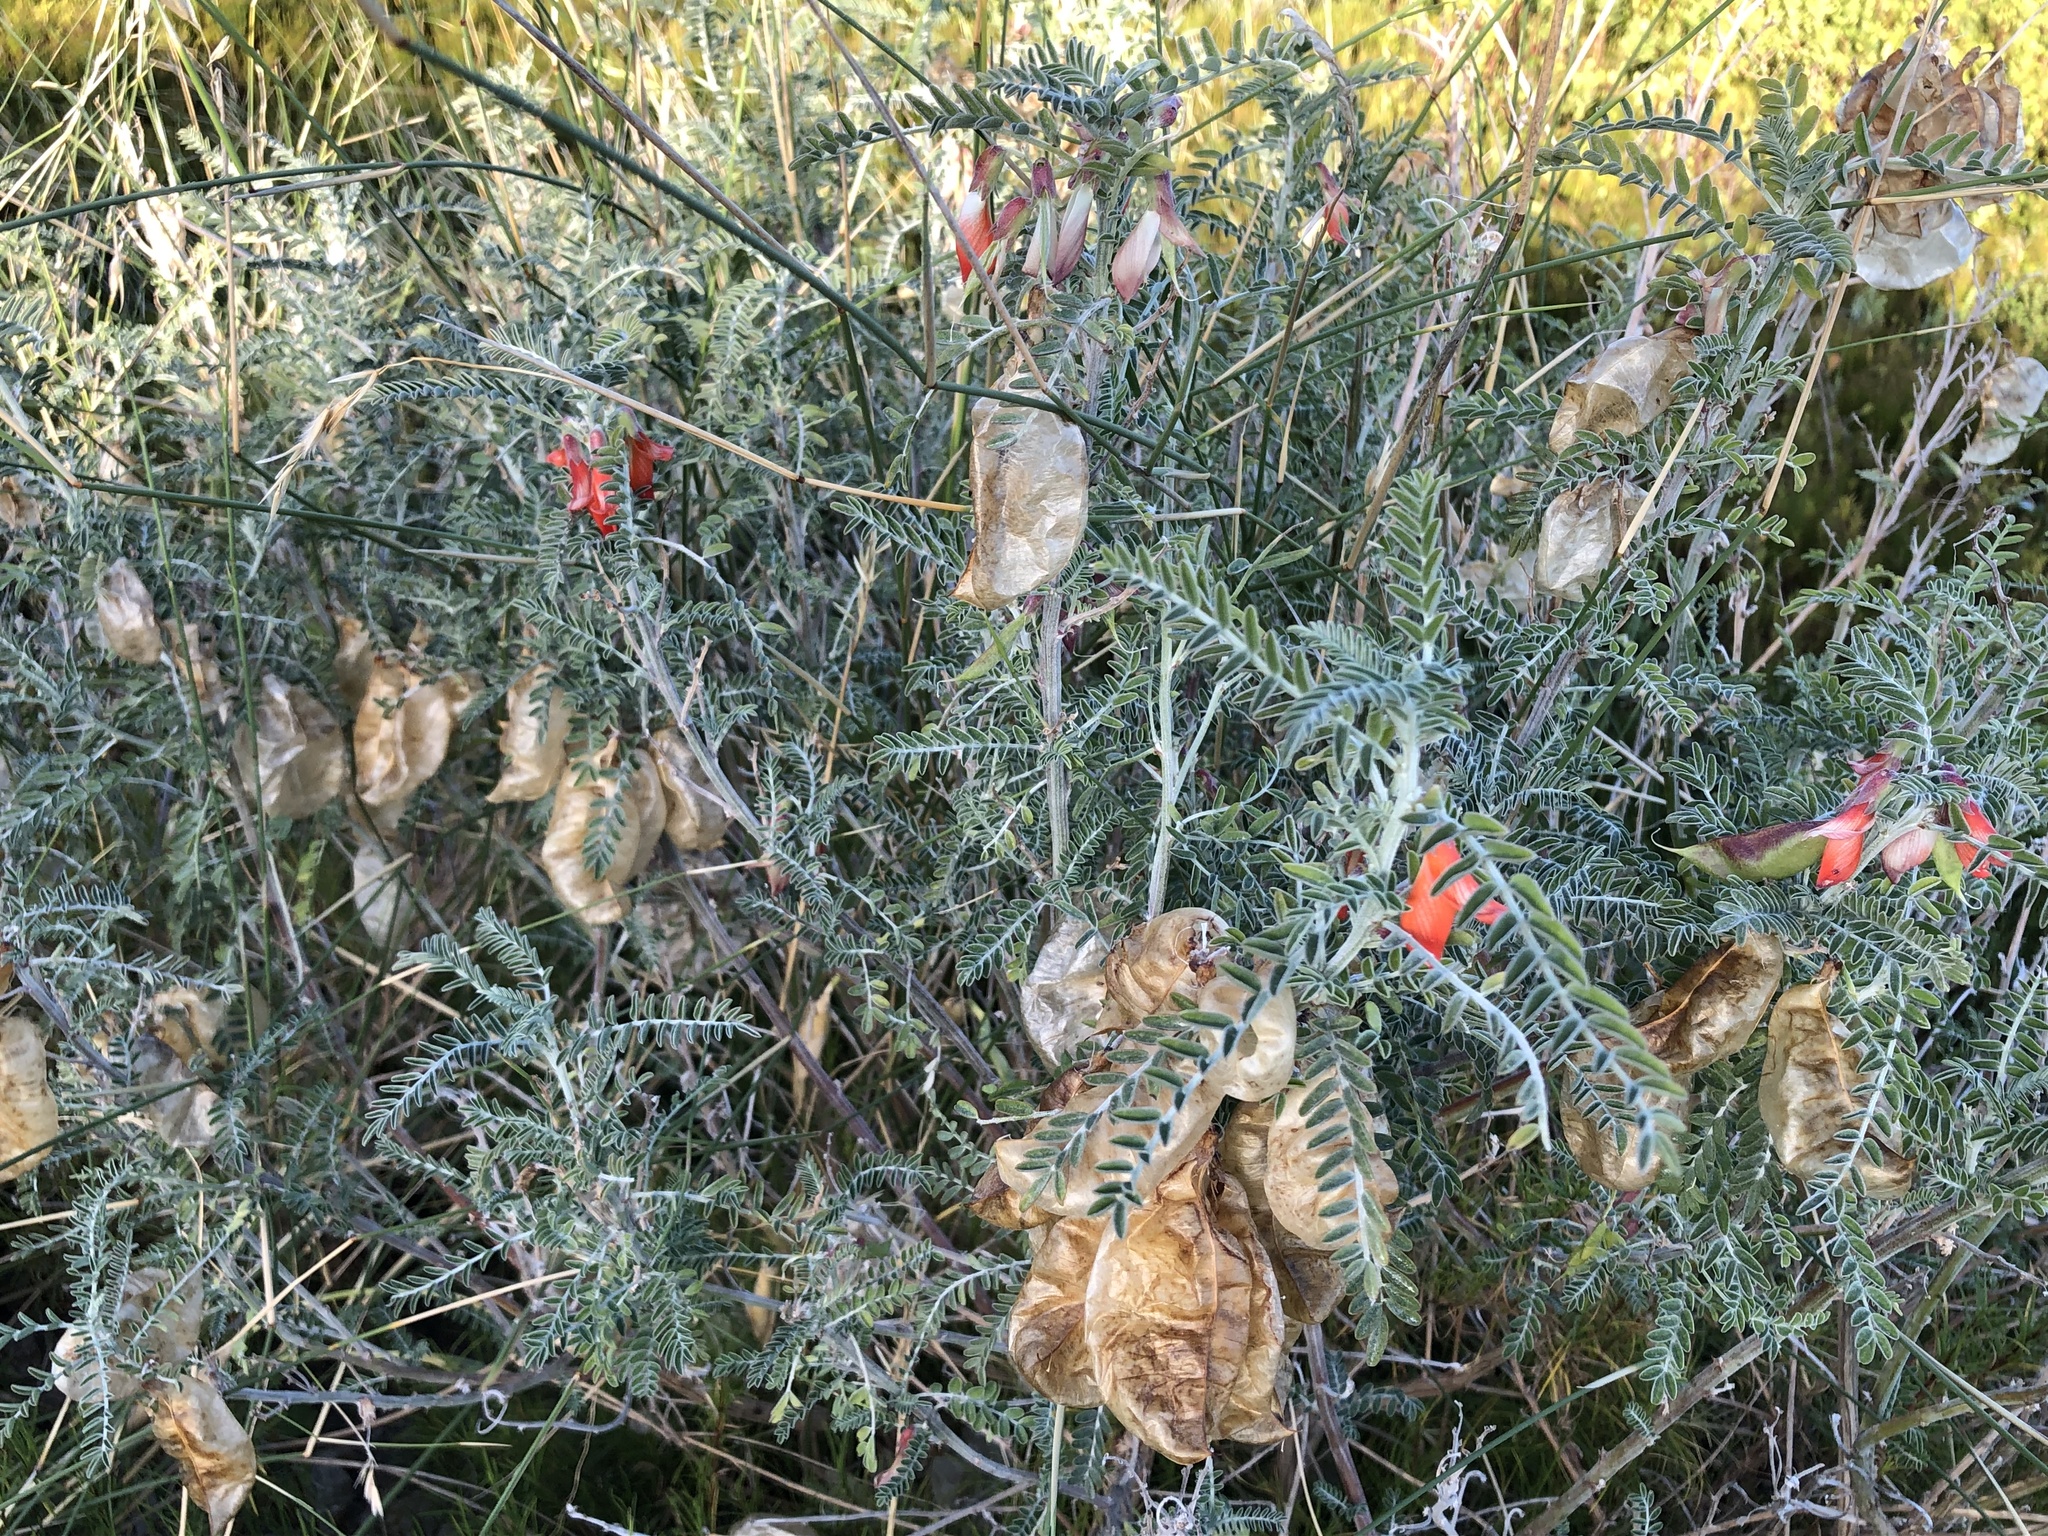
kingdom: Plantae
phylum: Tracheophyta
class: Magnoliopsida
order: Fabales
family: Fabaceae
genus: Lessertia
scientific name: Lessertia frutescens
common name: Balloon-pea
